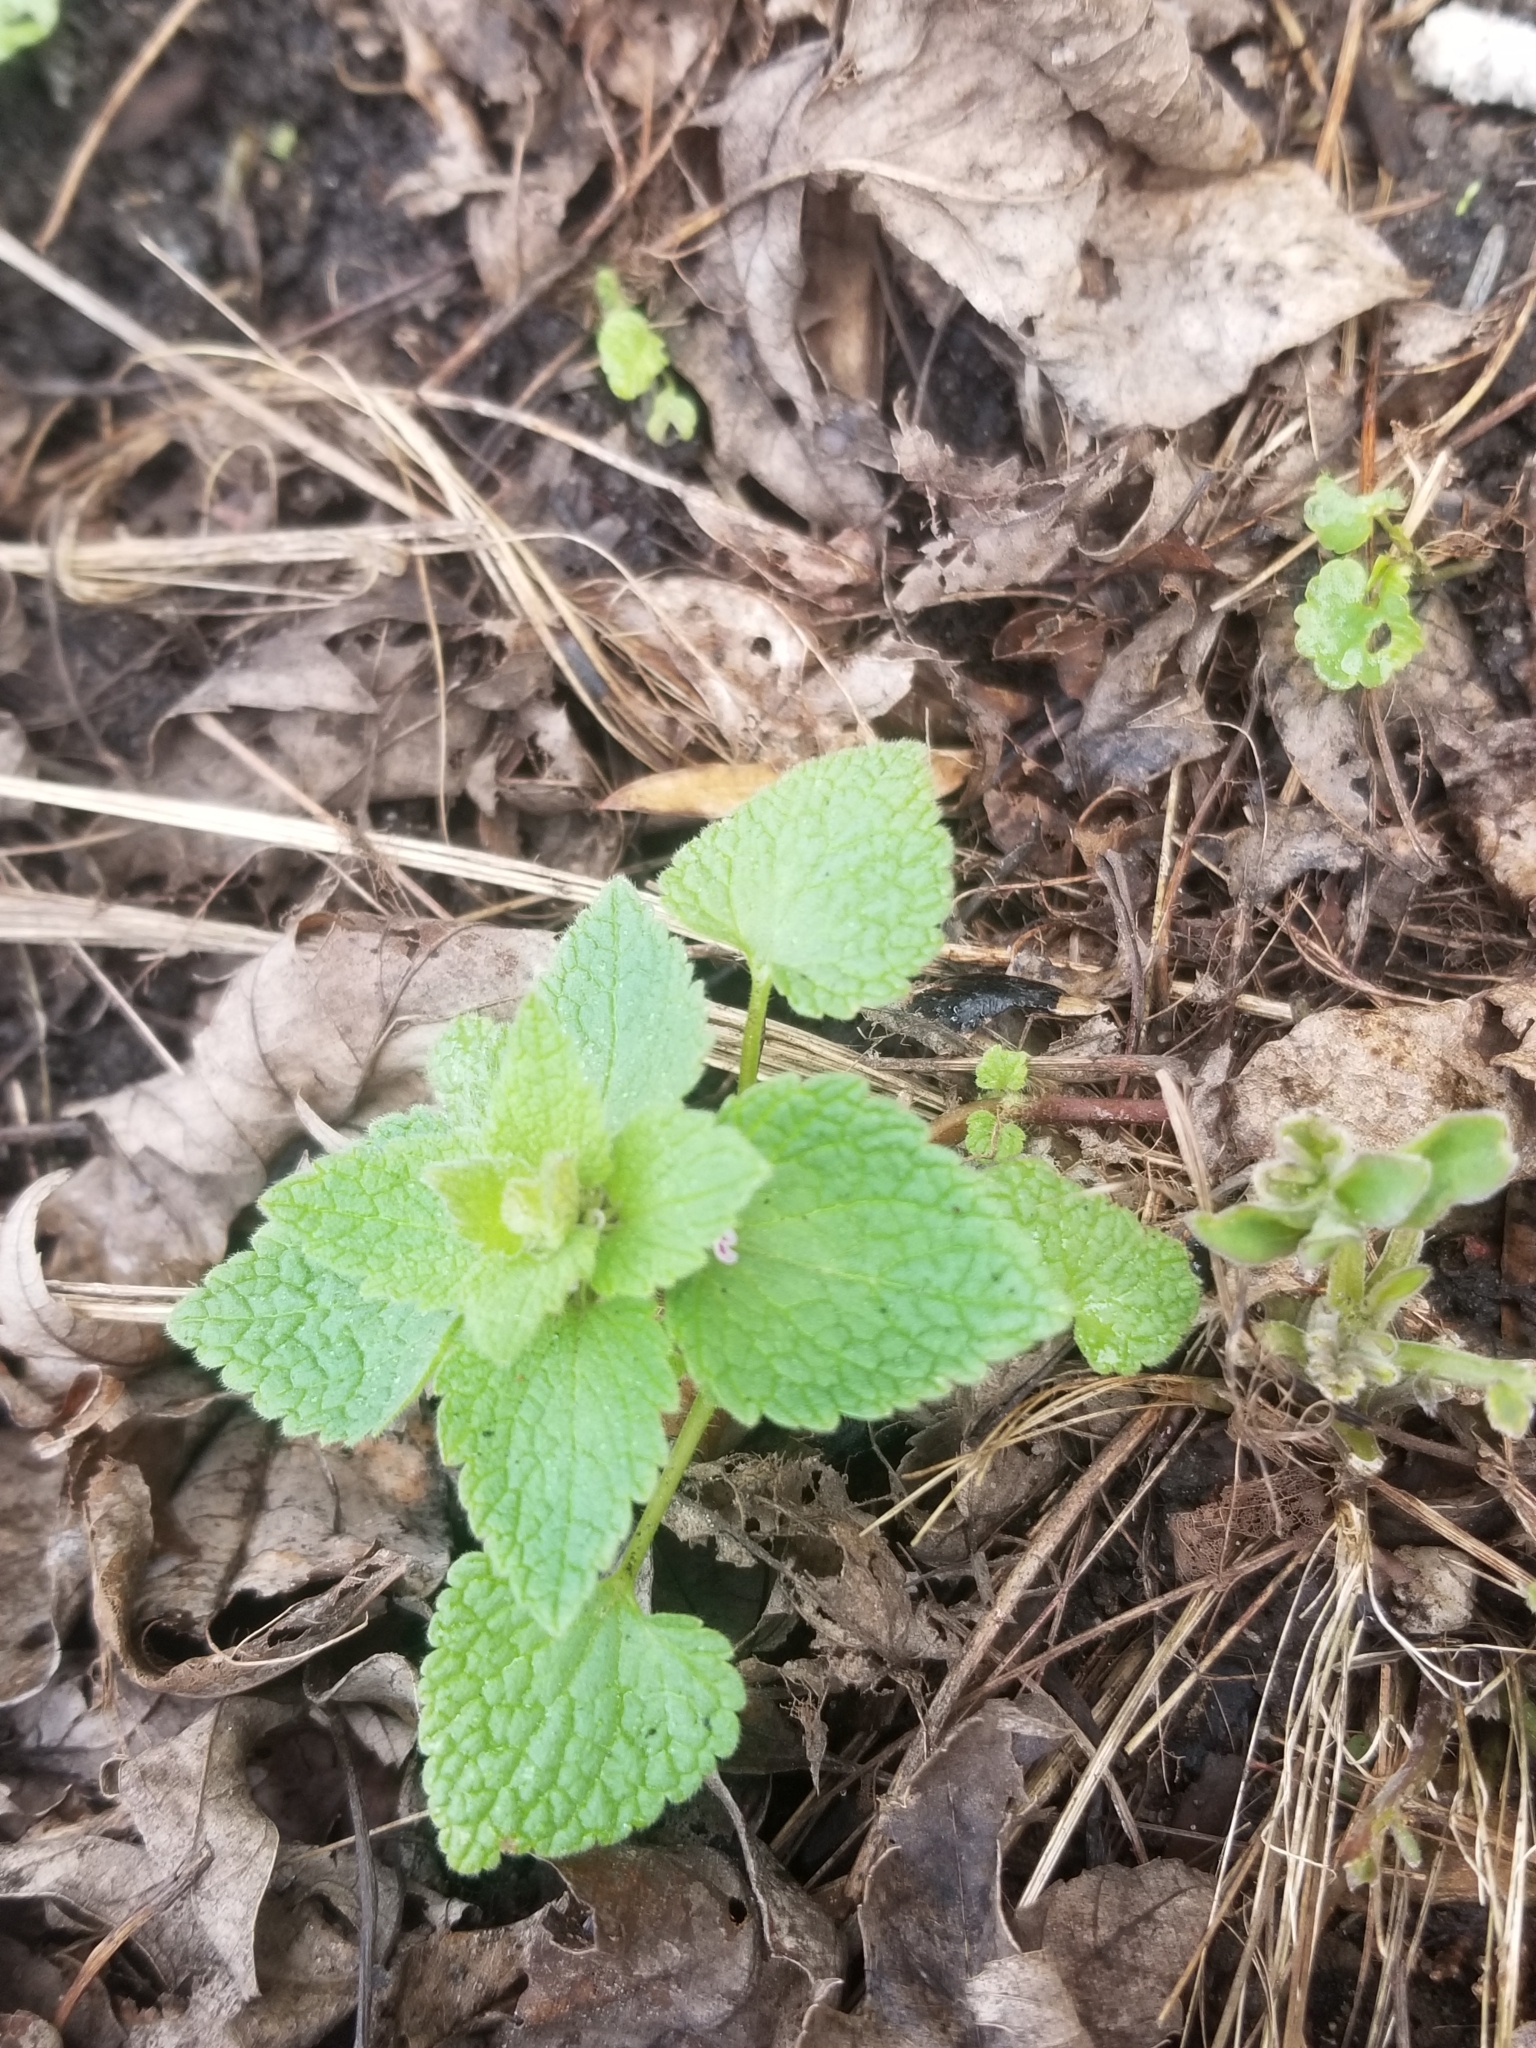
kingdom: Plantae
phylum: Tracheophyta
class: Magnoliopsida
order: Lamiales
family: Lamiaceae
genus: Lamium
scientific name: Lamium purpureum
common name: Red dead-nettle
